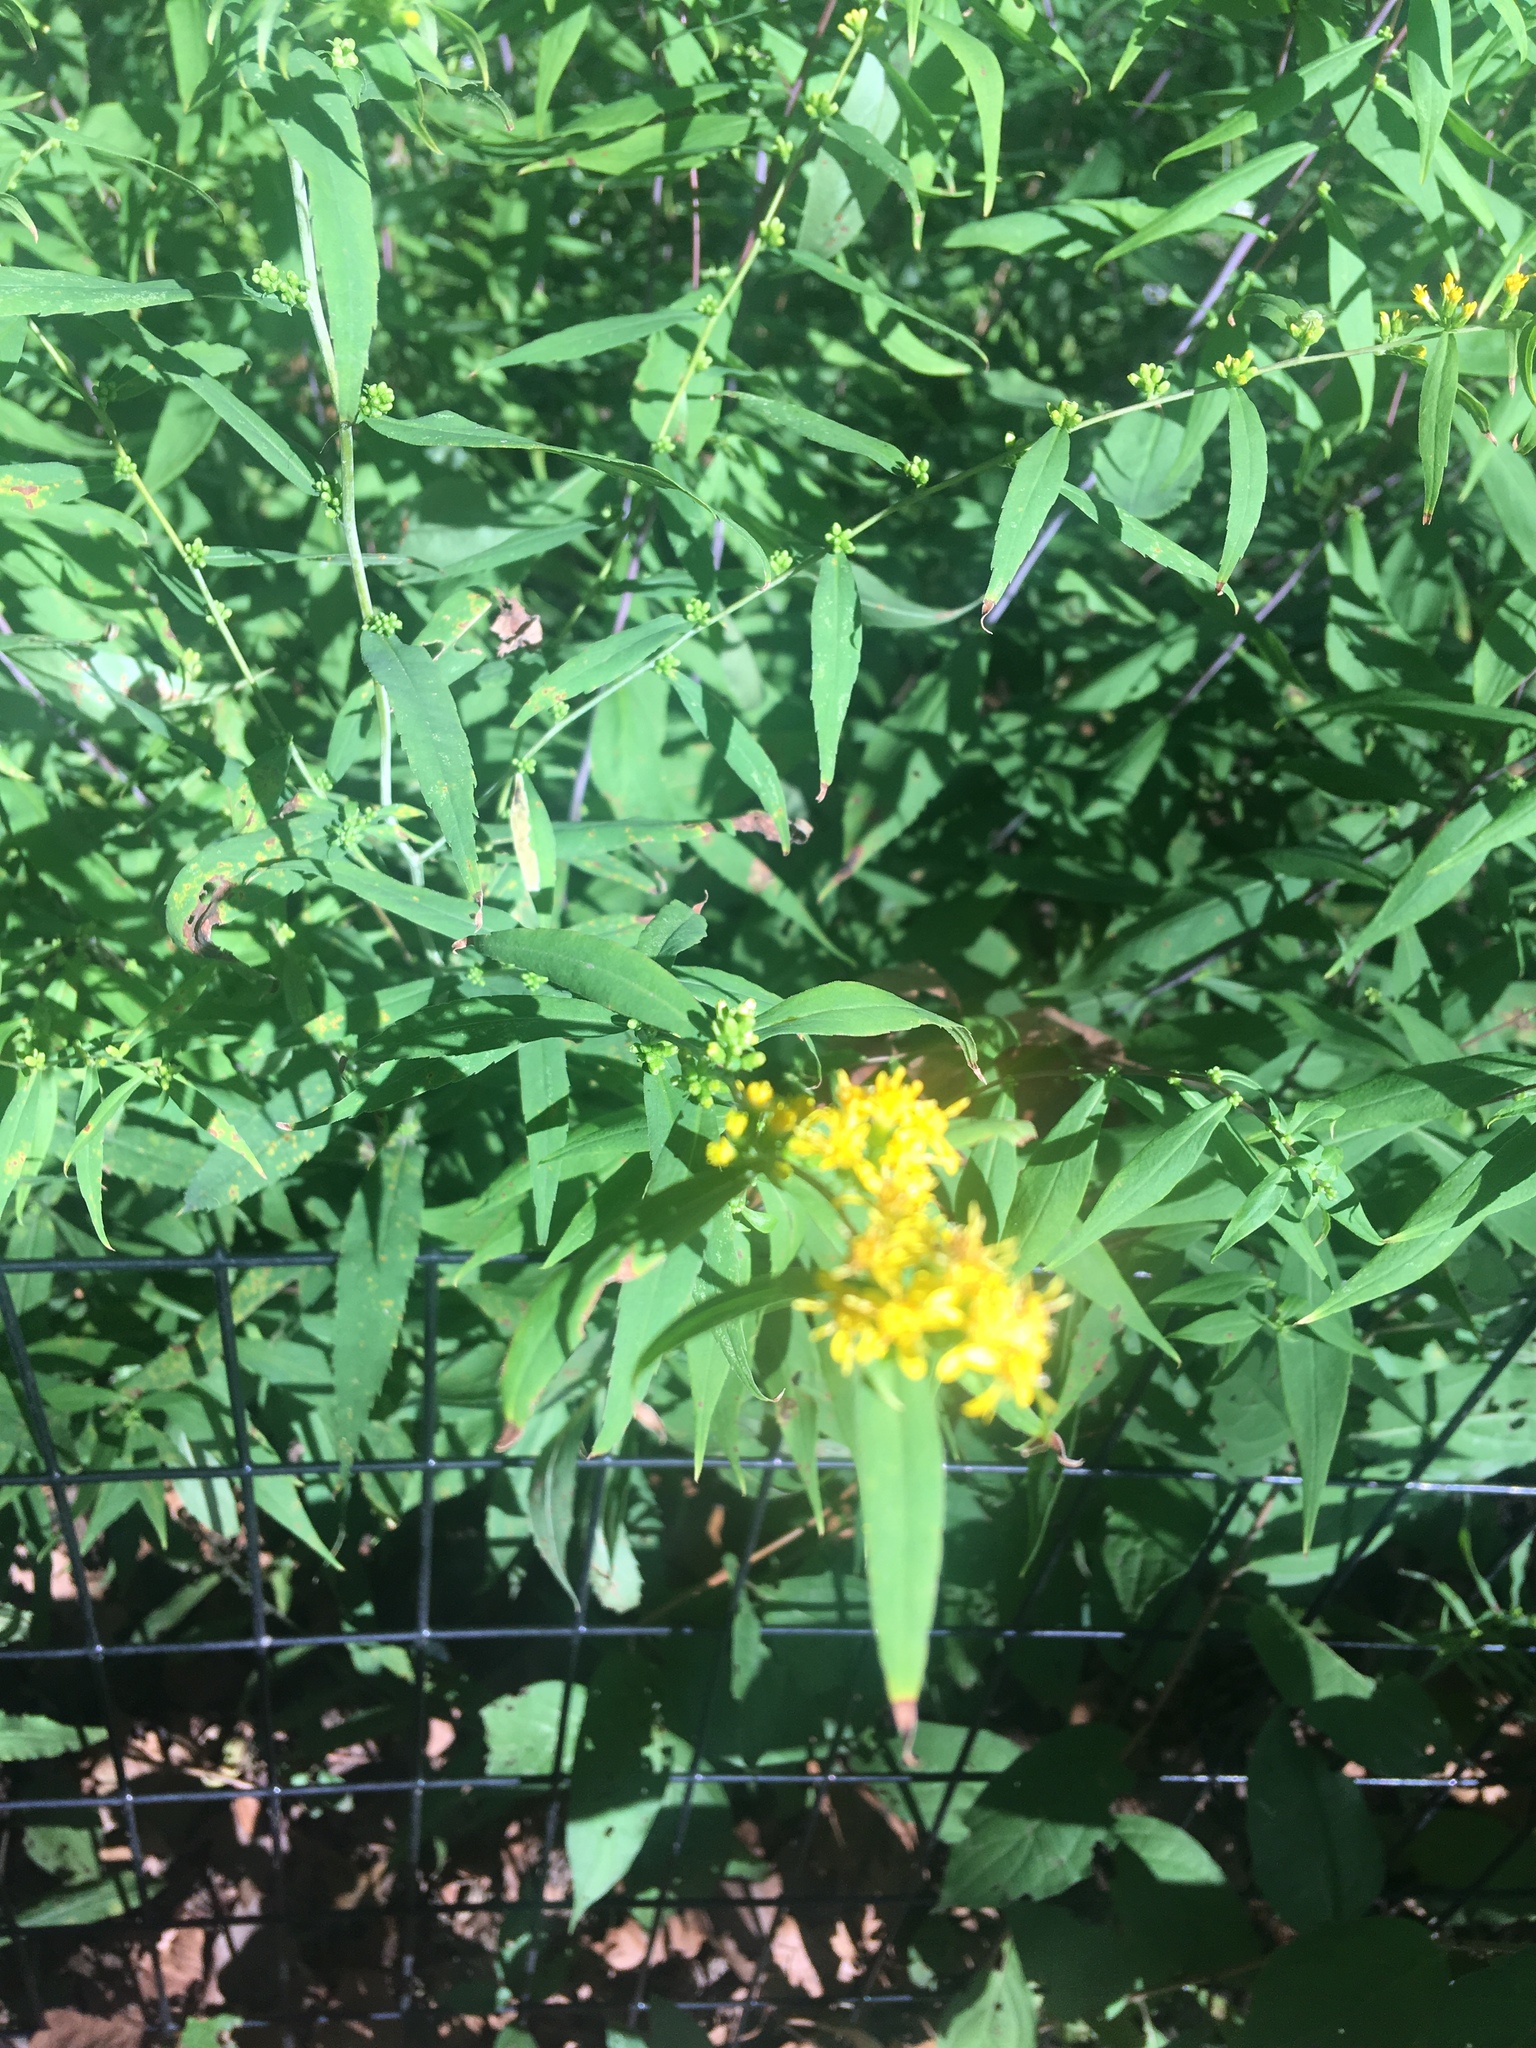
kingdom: Plantae
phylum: Tracheophyta
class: Magnoliopsida
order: Asterales
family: Asteraceae
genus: Solidago
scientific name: Solidago caesia
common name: Woodland goldenrod
